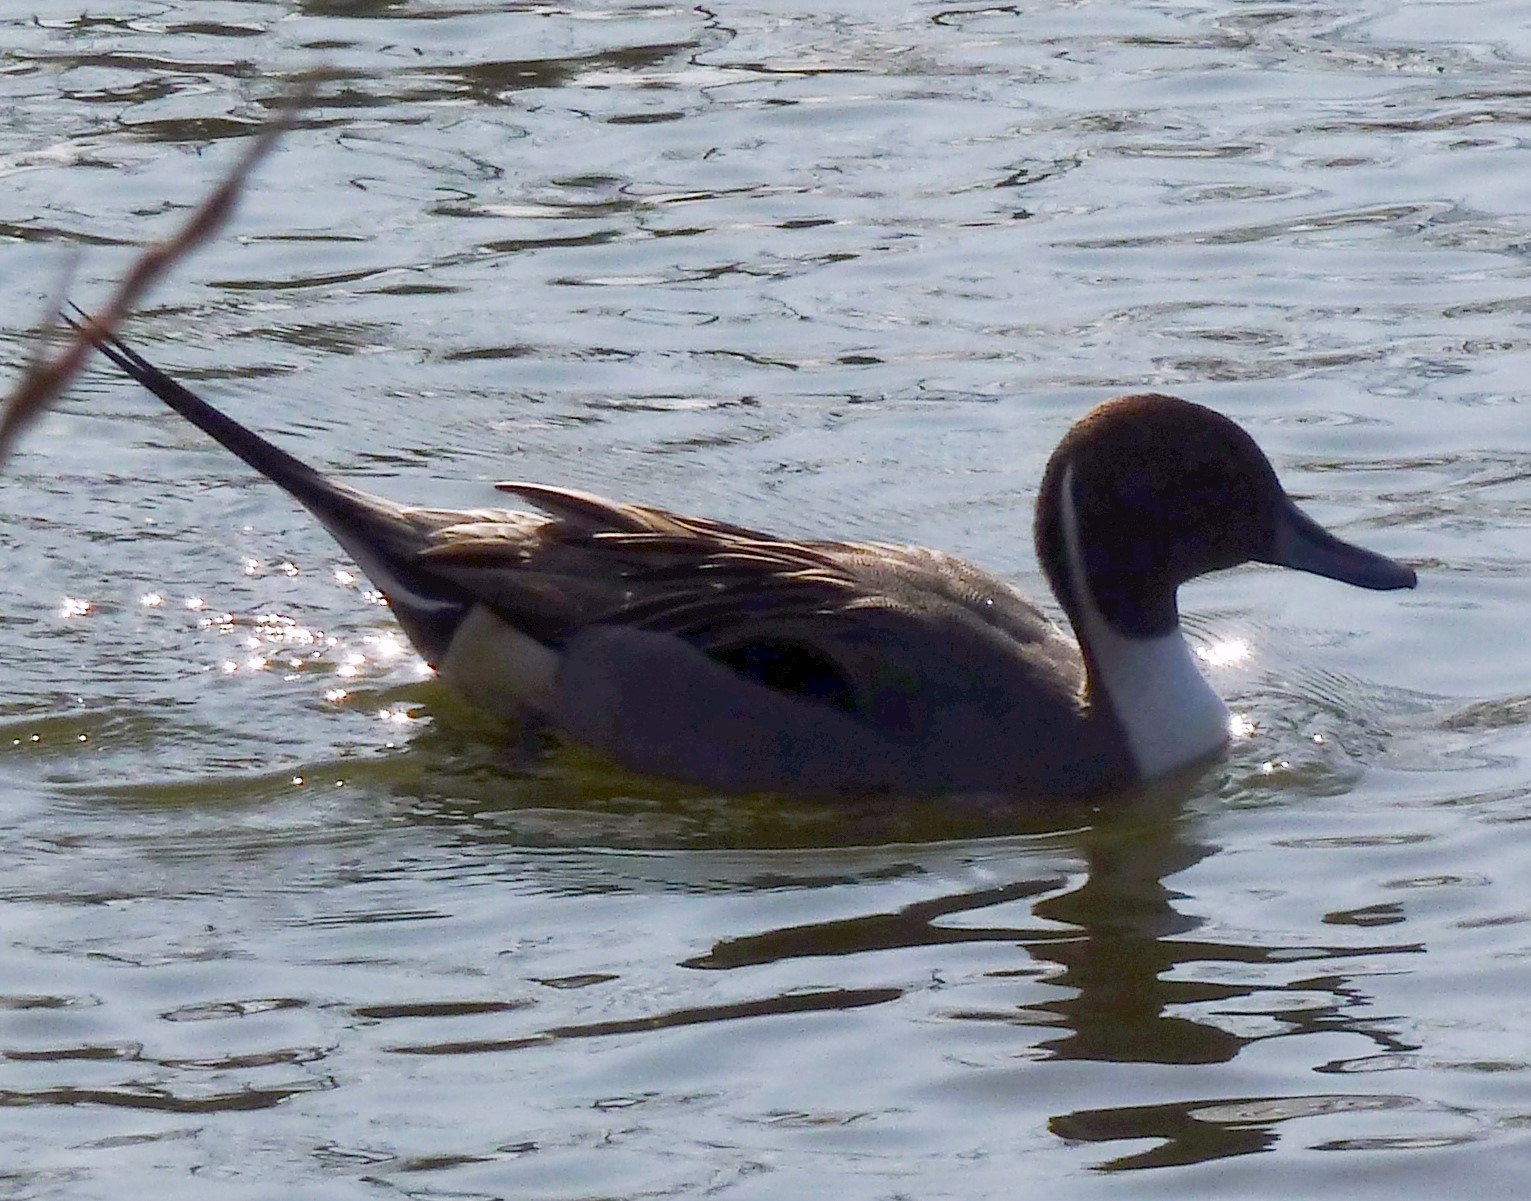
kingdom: Animalia
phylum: Chordata
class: Aves
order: Anseriformes
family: Anatidae
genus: Anas
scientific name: Anas acuta
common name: Northern pintail
